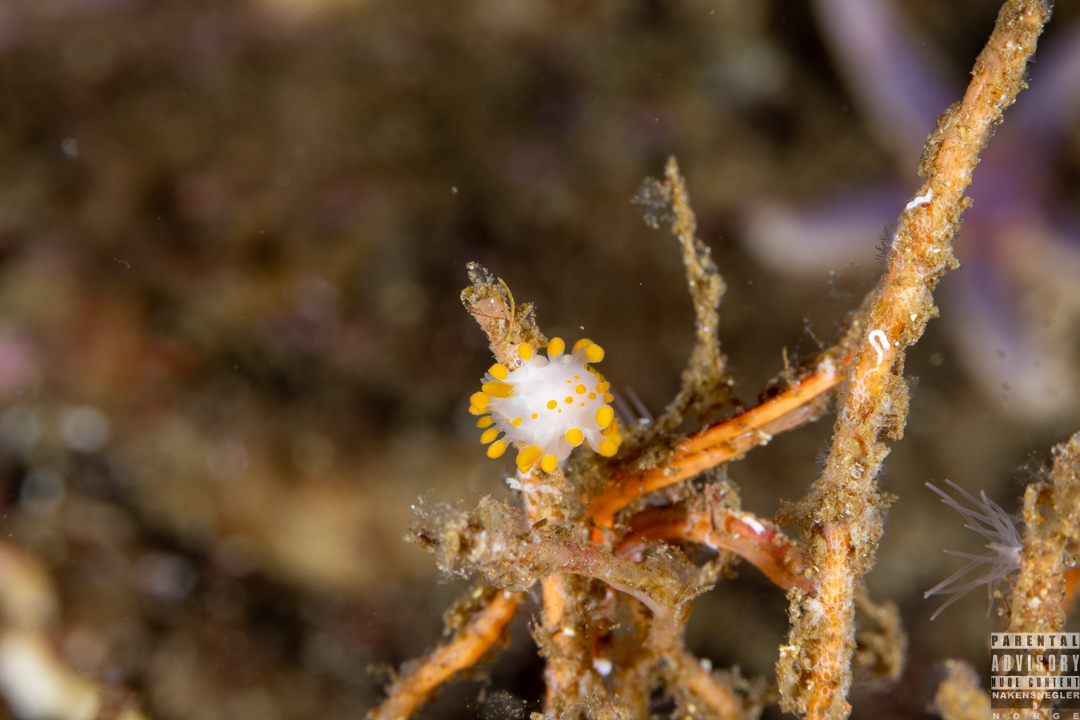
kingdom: Animalia
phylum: Mollusca
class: Gastropoda
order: Nudibranchia
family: Polyceridae
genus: Limacia
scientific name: Limacia clavigera
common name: Orange-clubbed sea slug
